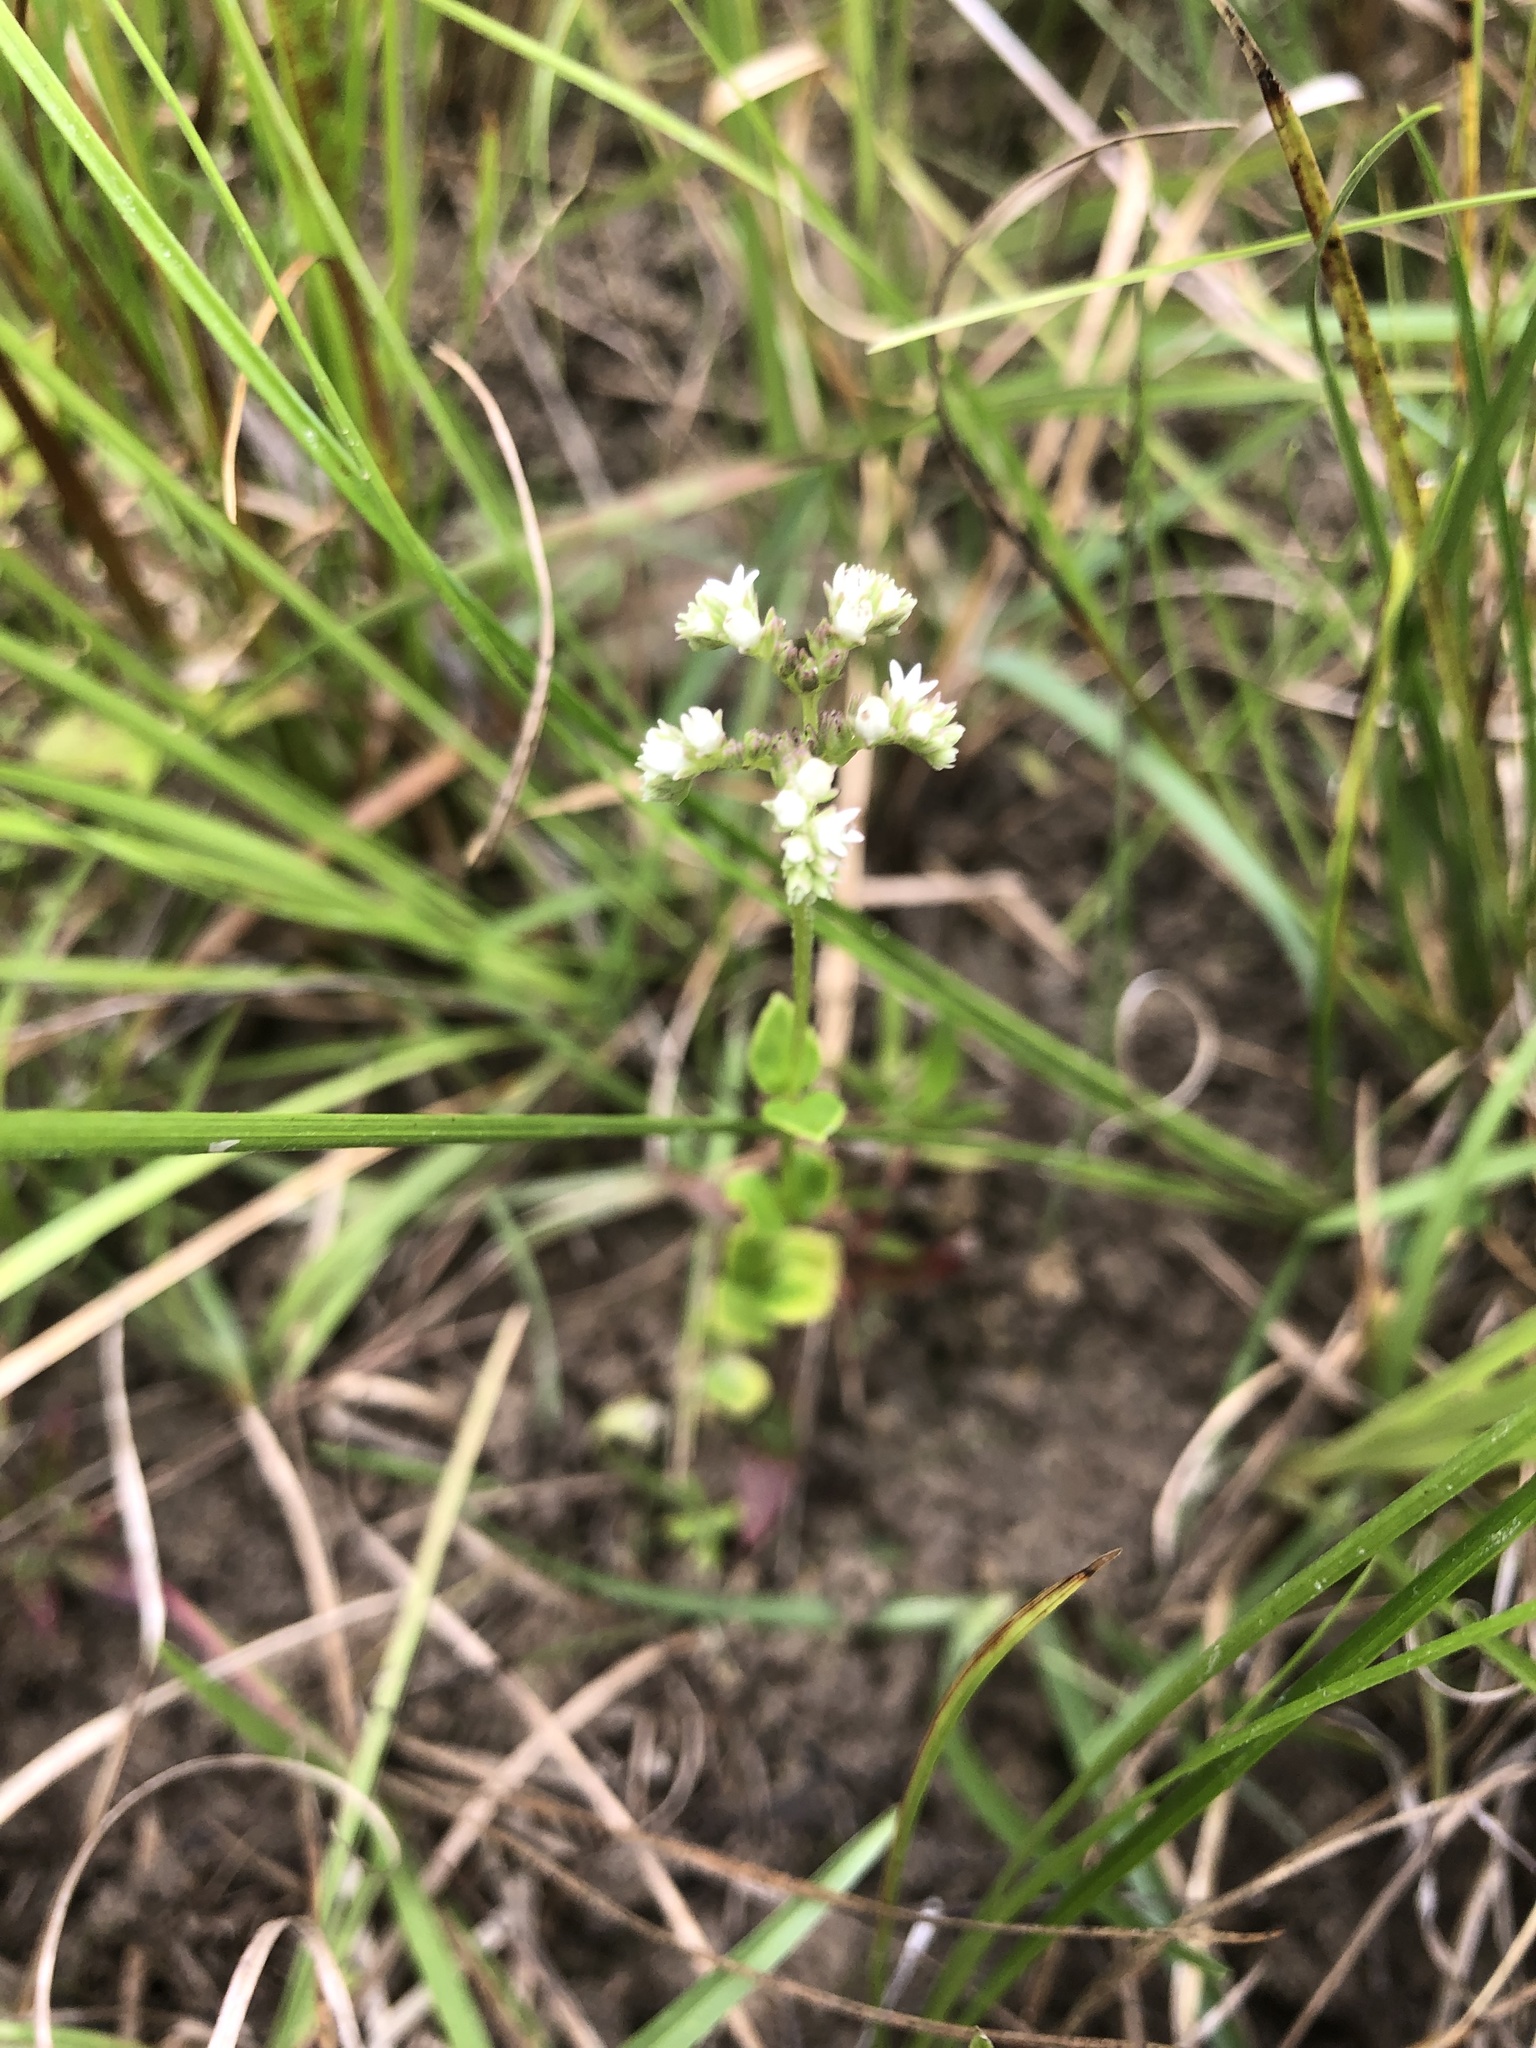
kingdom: Plantae
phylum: Tracheophyta
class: Magnoliopsida
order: Gentianales
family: Loganiaceae
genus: Mitreola
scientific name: Mitreola sessilifolia
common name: Swamp hornpod
